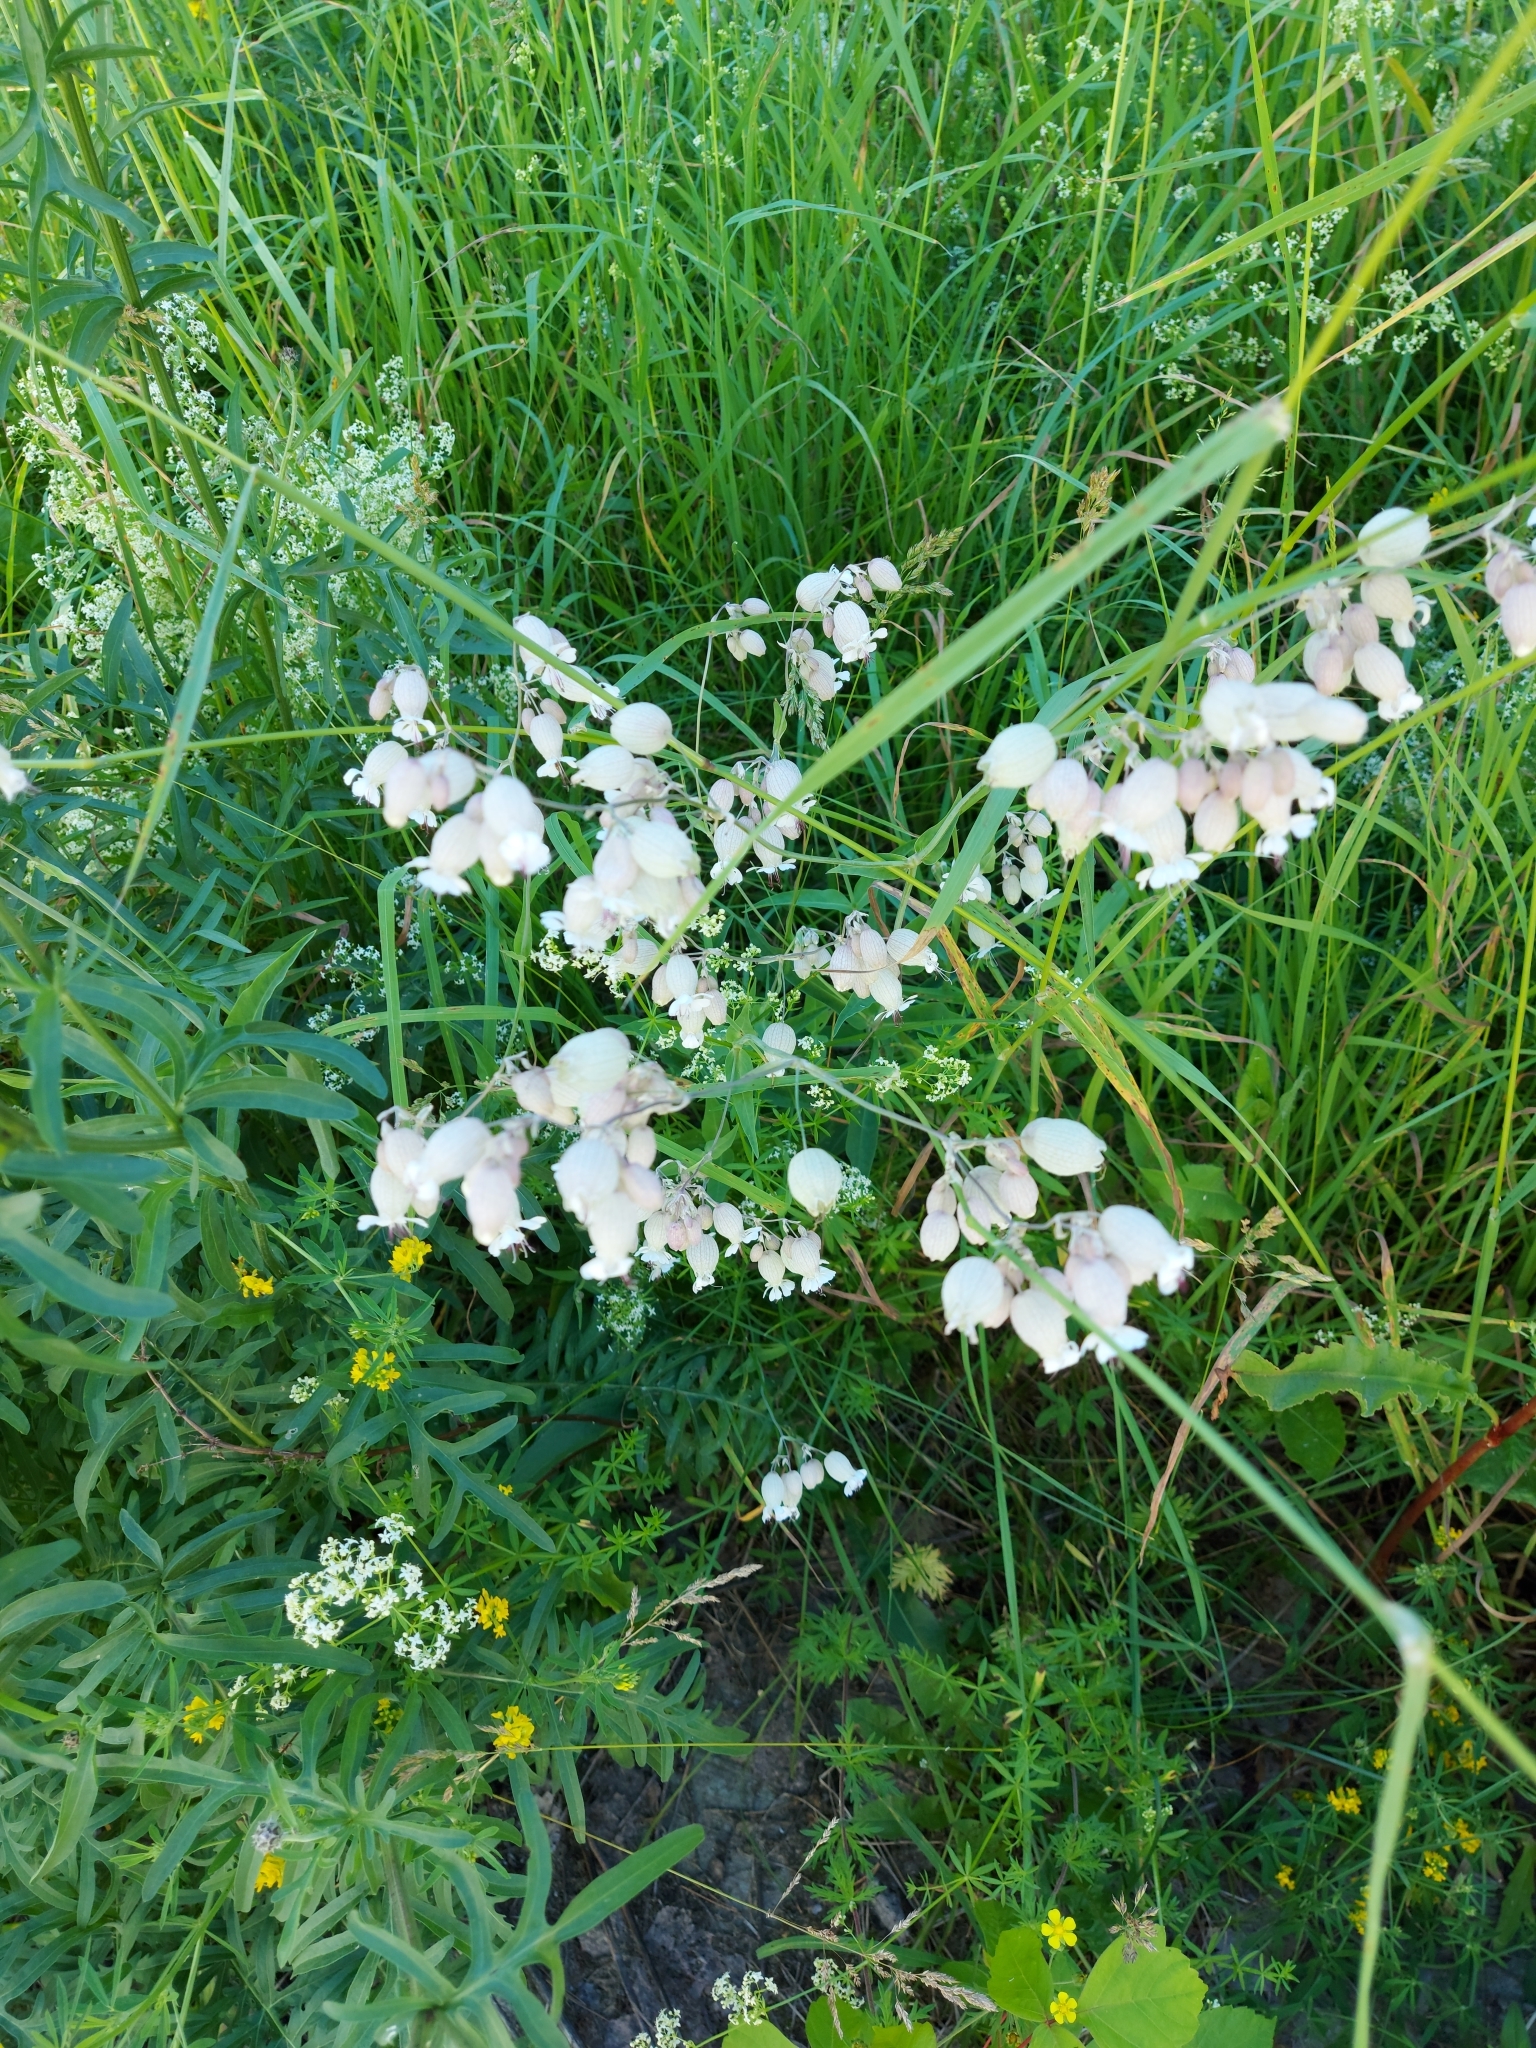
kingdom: Plantae
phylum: Tracheophyta
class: Magnoliopsida
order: Caryophyllales
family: Caryophyllaceae
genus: Silene
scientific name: Silene vulgaris
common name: Bladder campion
